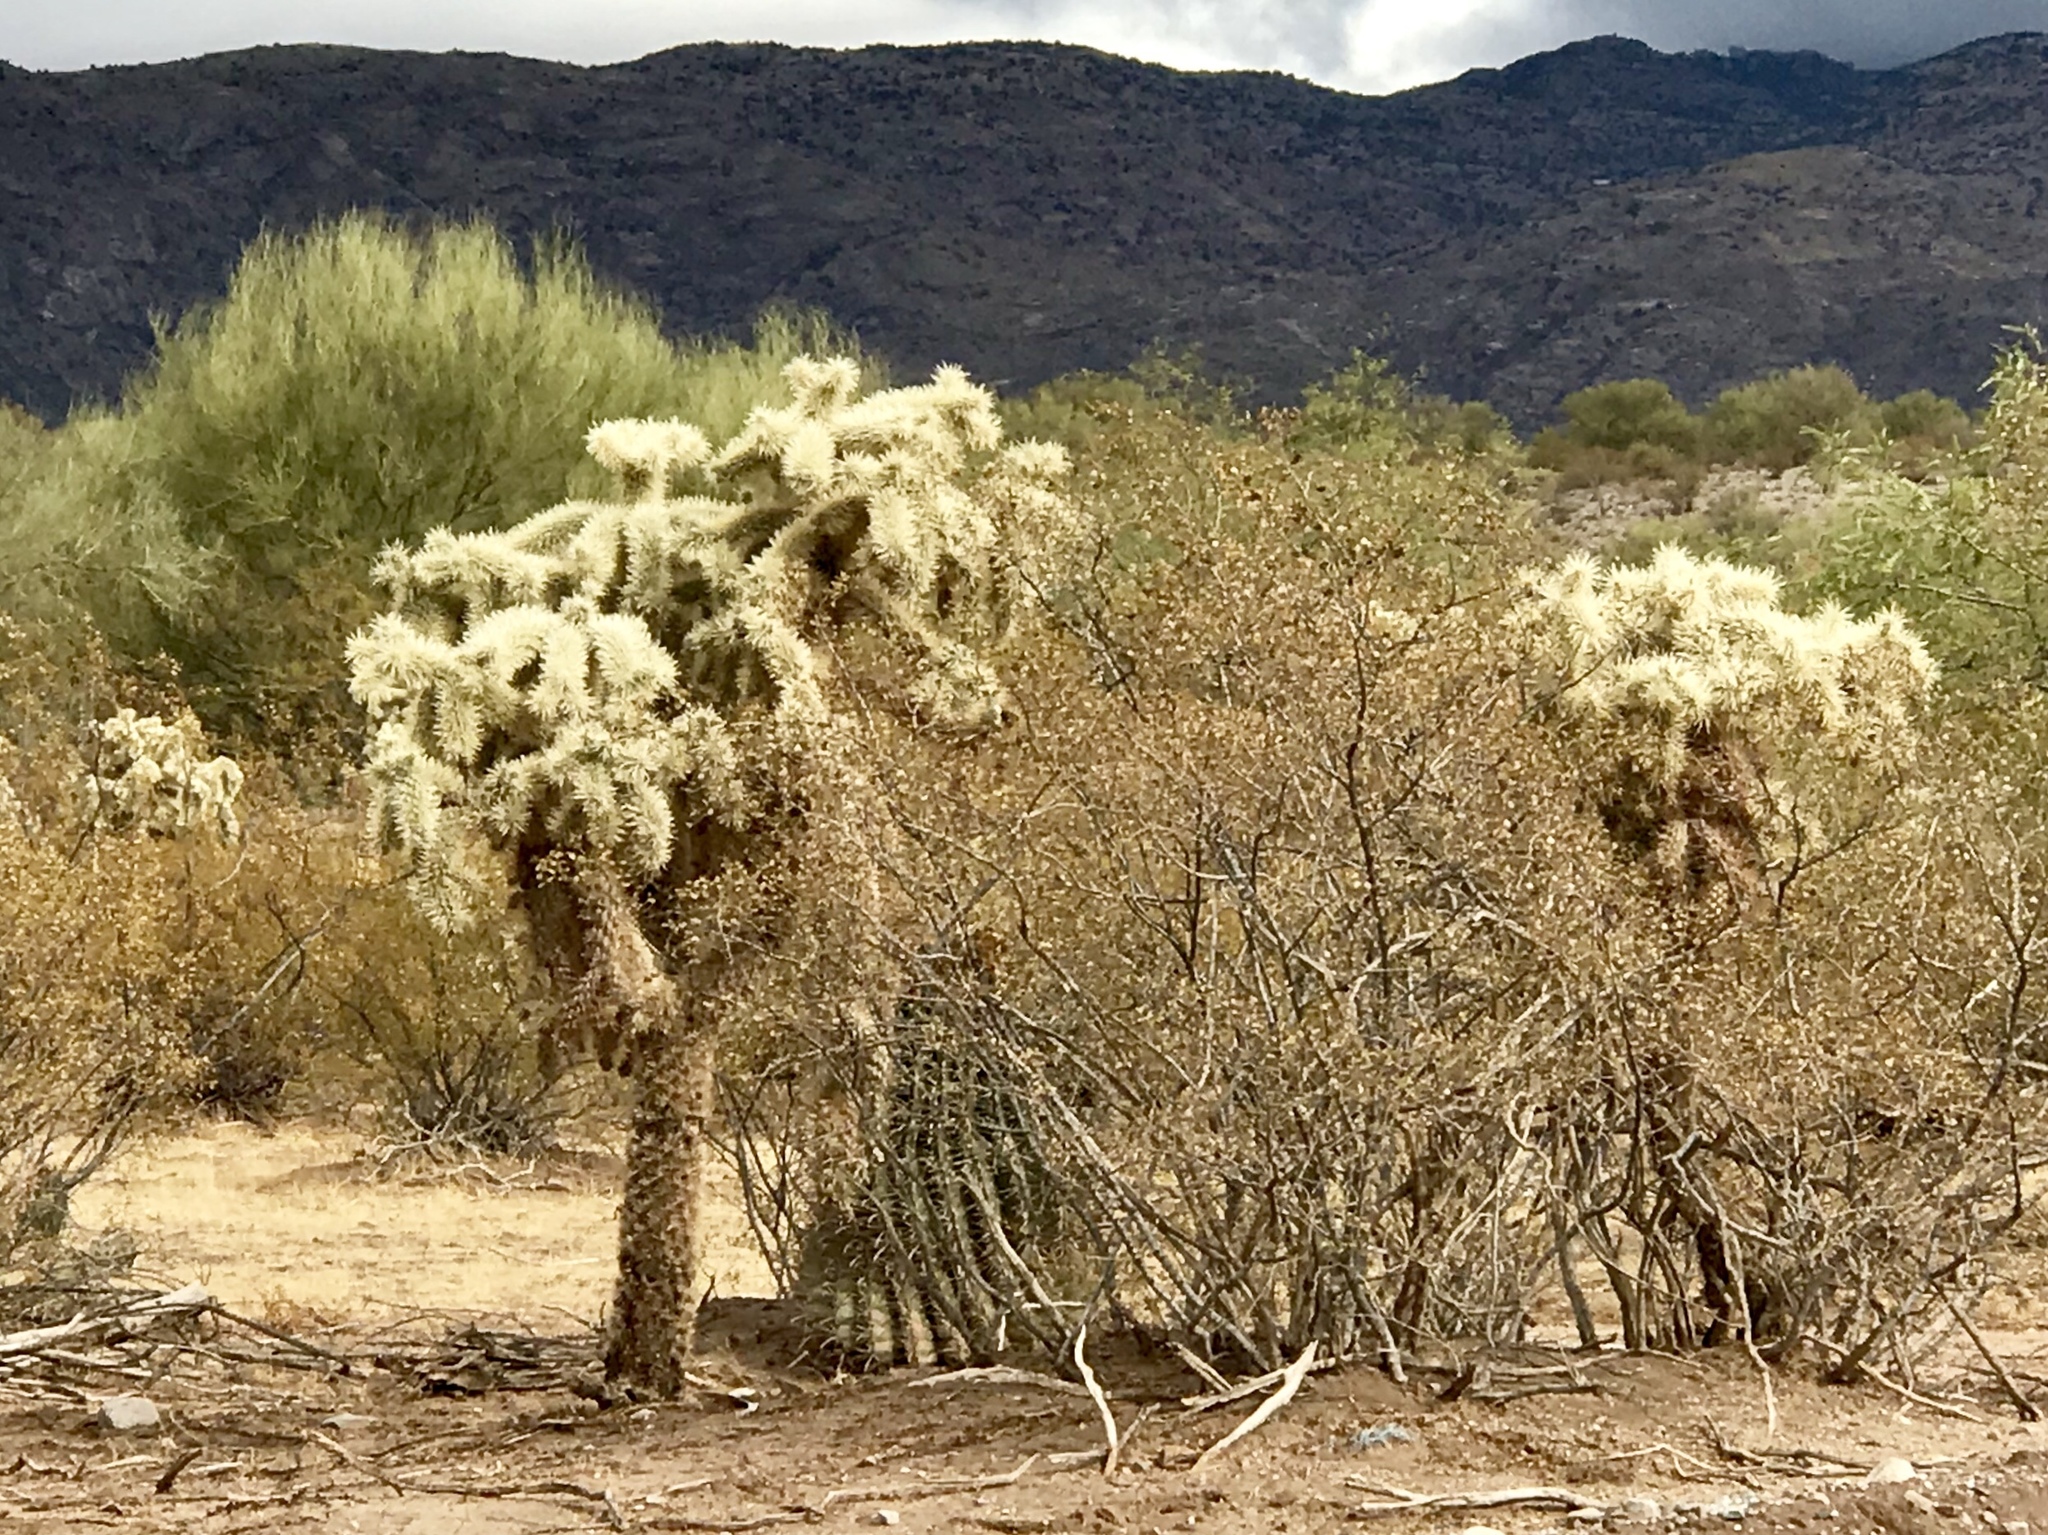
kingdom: Plantae
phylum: Tracheophyta
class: Magnoliopsida
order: Caryophyllales
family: Cactaceae
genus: Cylindropuntia
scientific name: Cylindropuntia fulgida
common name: Jumping cholla
